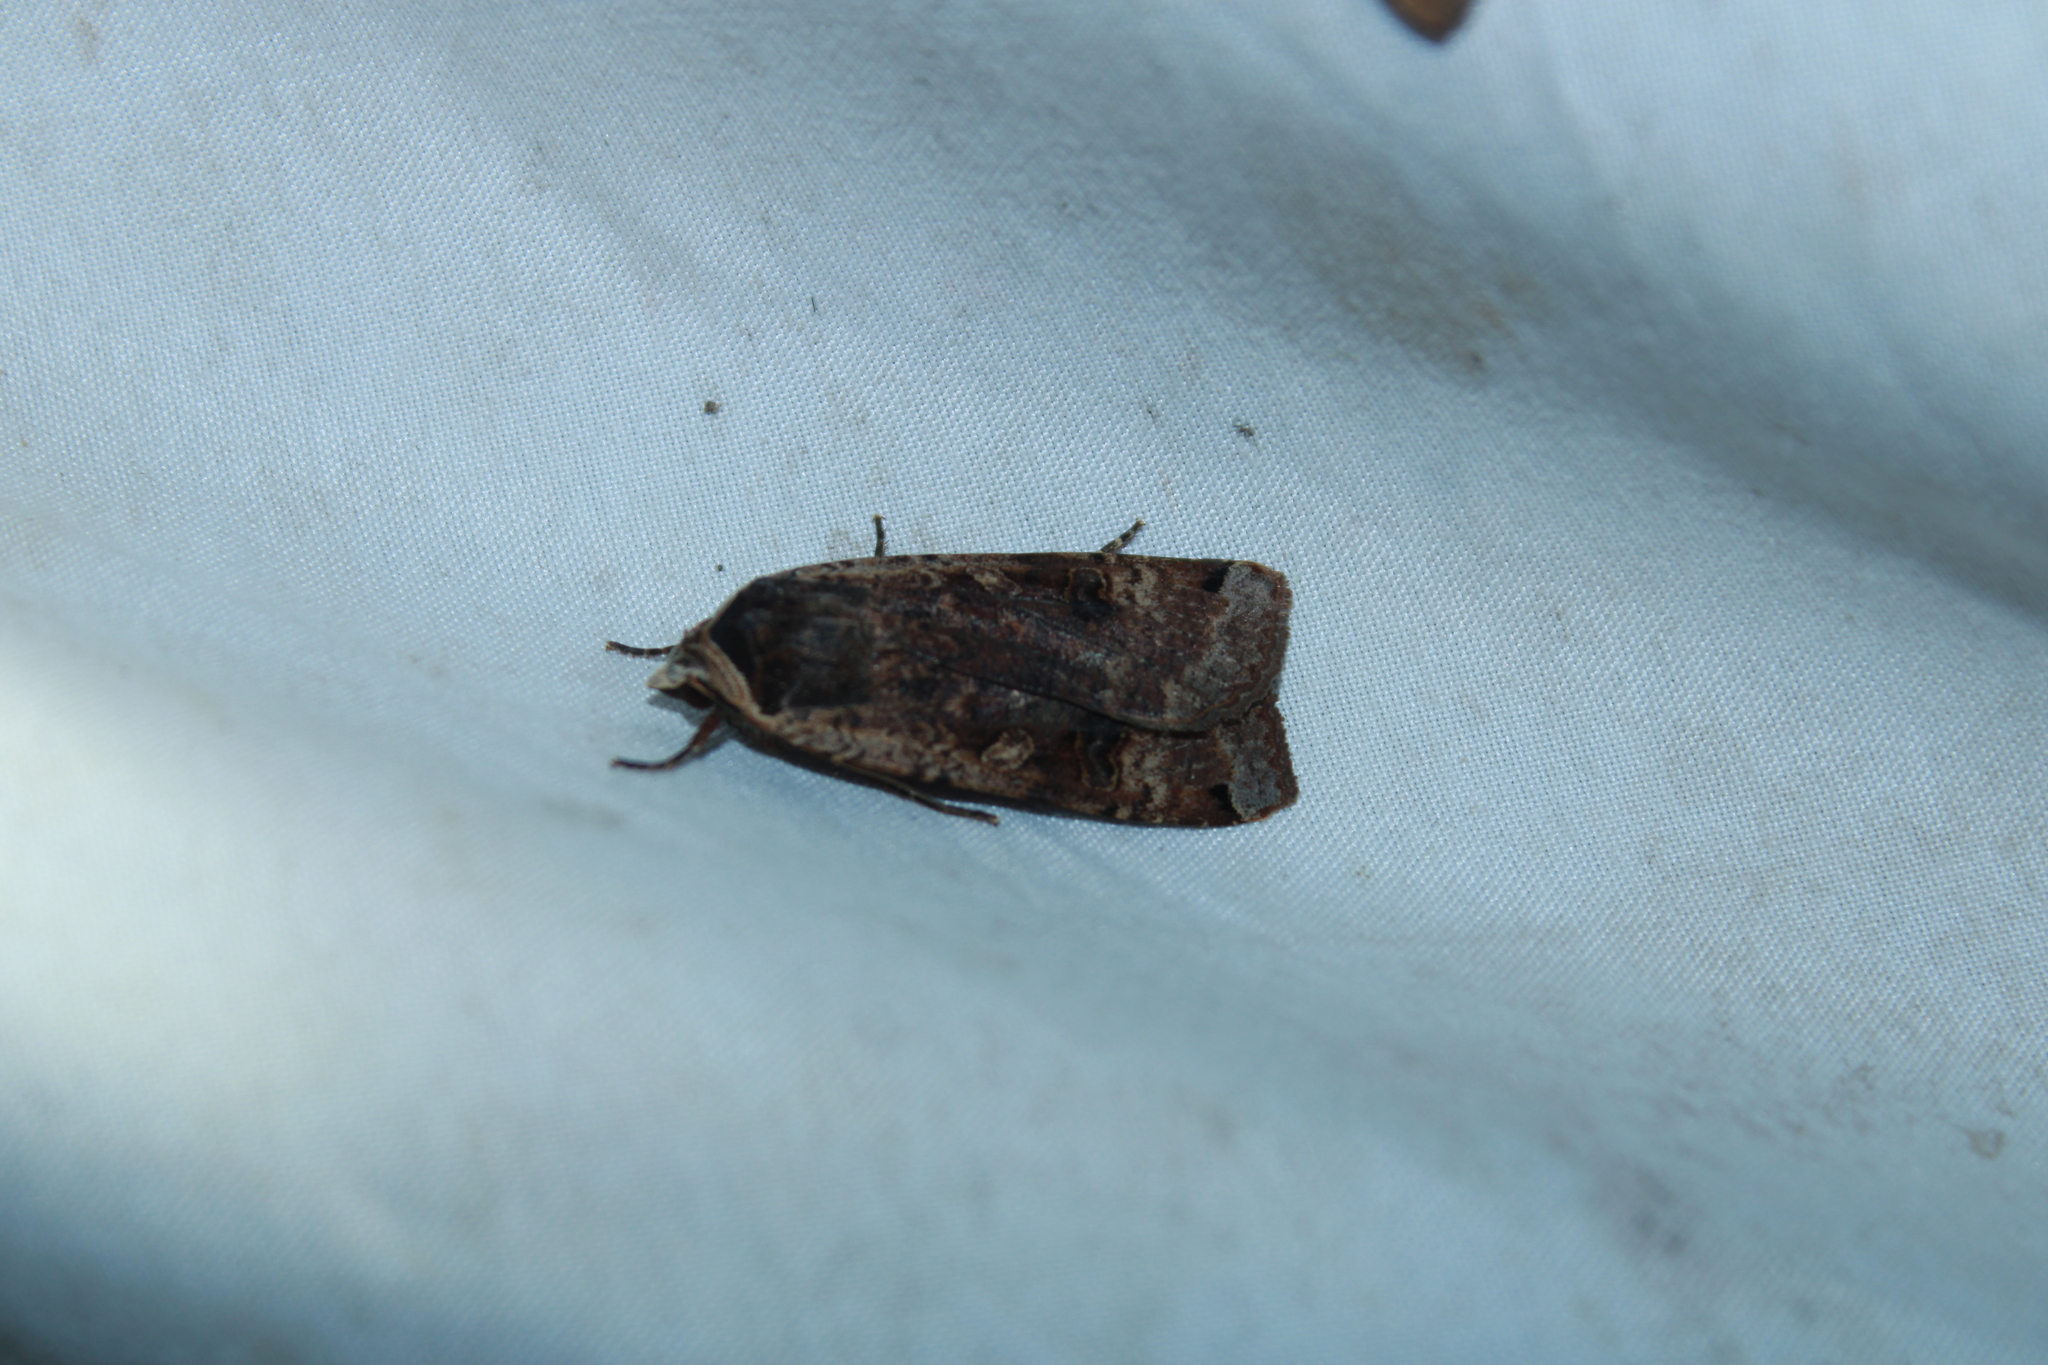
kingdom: Animalia
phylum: Arthropoda
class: Insecta
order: Lepidoptera
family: Noctuidae
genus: Noctua
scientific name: Noctua pronuba
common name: Large yellow underwing
